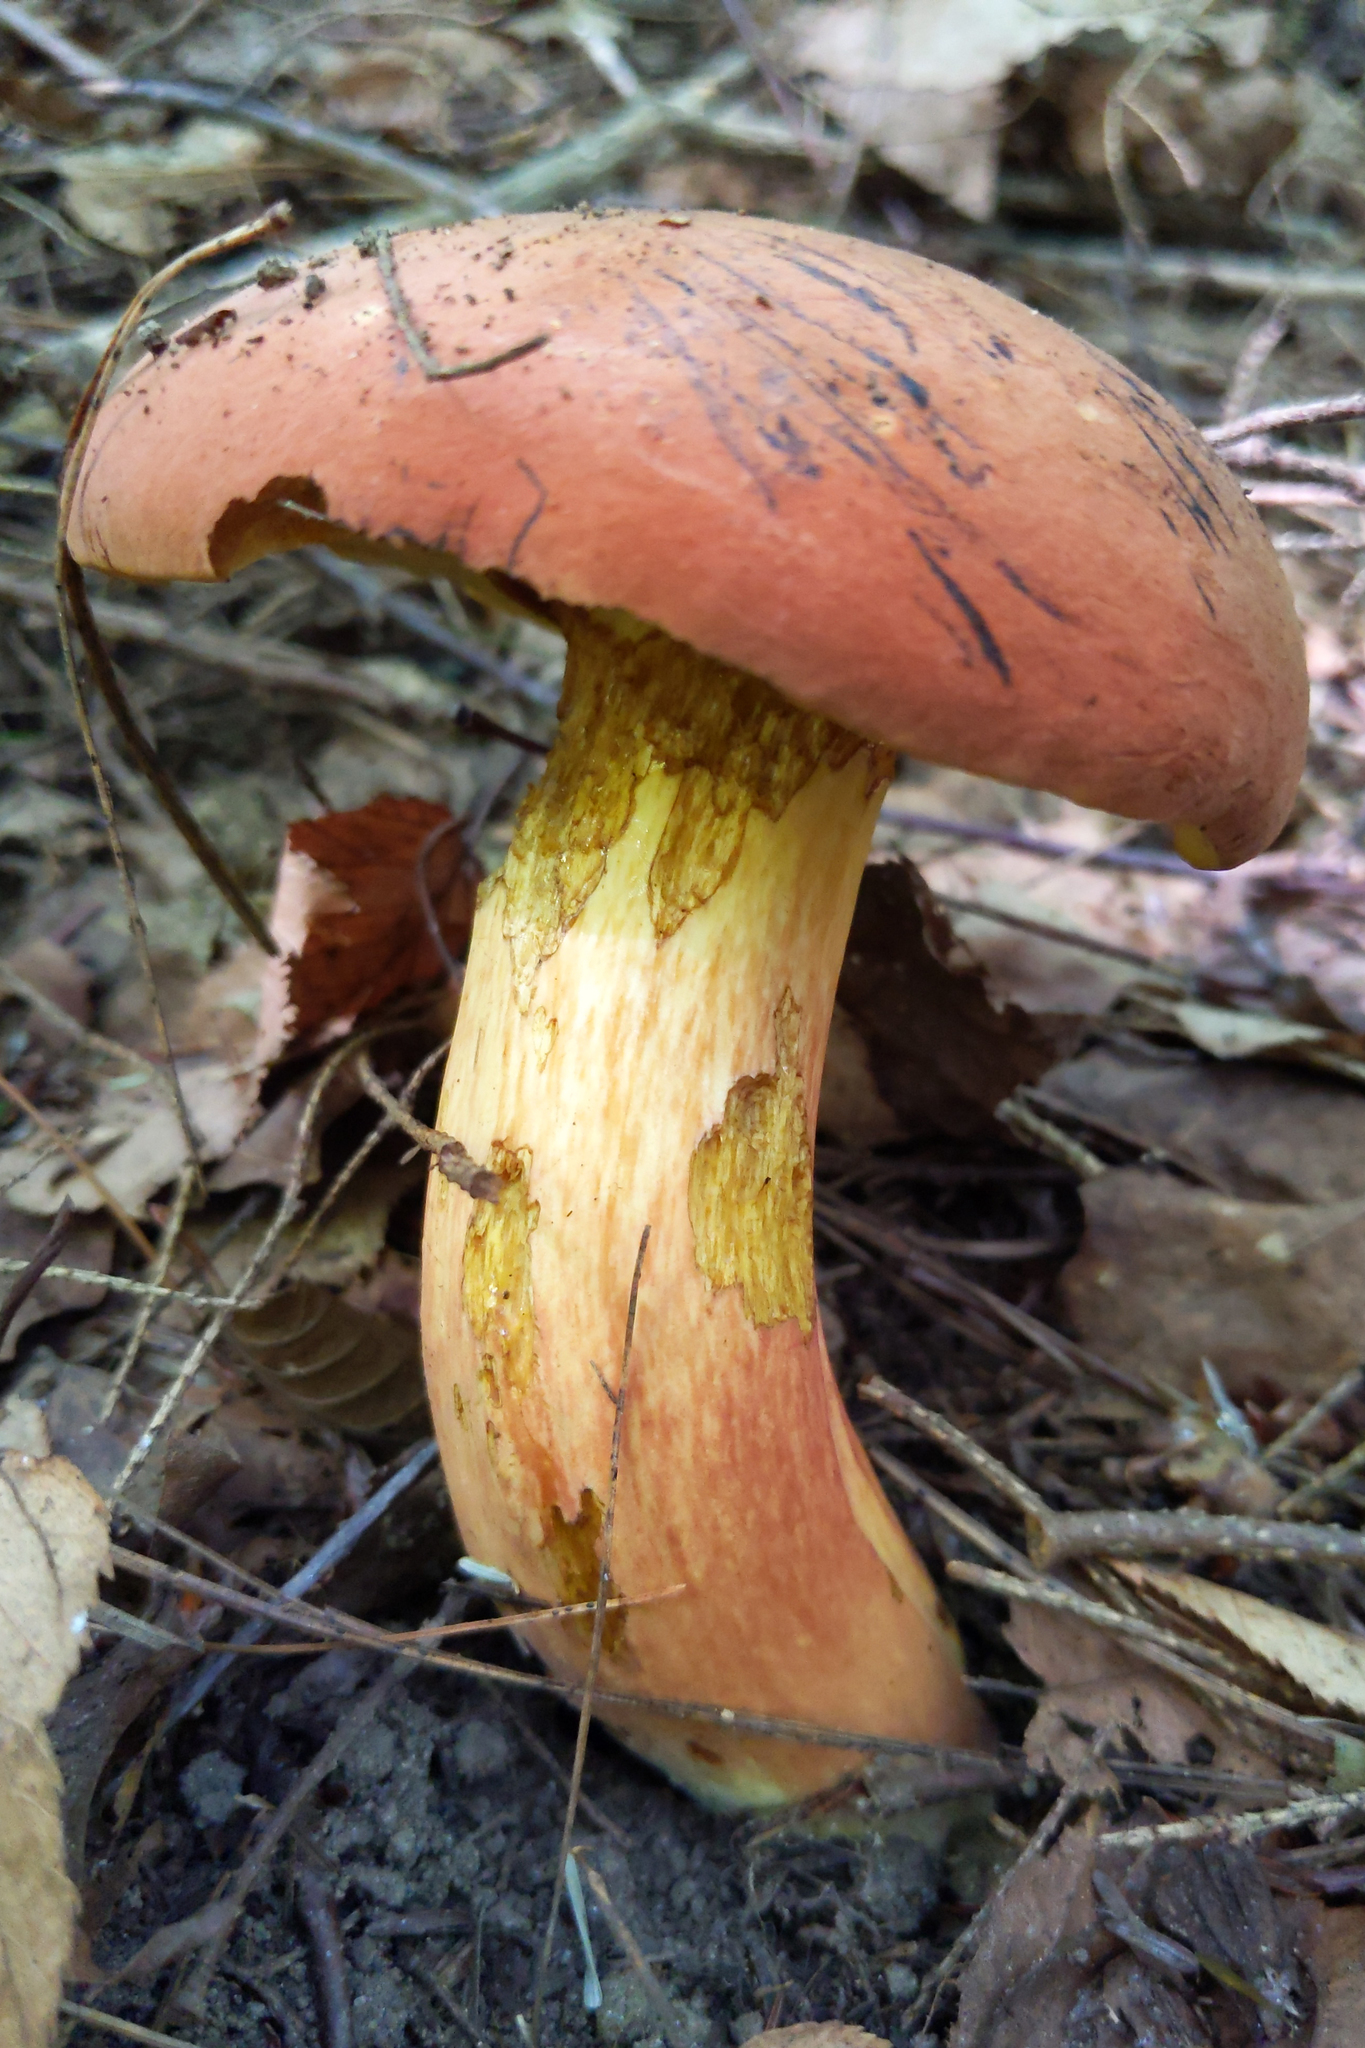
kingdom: Fungi
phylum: Basidiomycota
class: Agaricomycetes
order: Boletales
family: Boletaceae
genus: Boletus
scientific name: Boletus sensibilis
